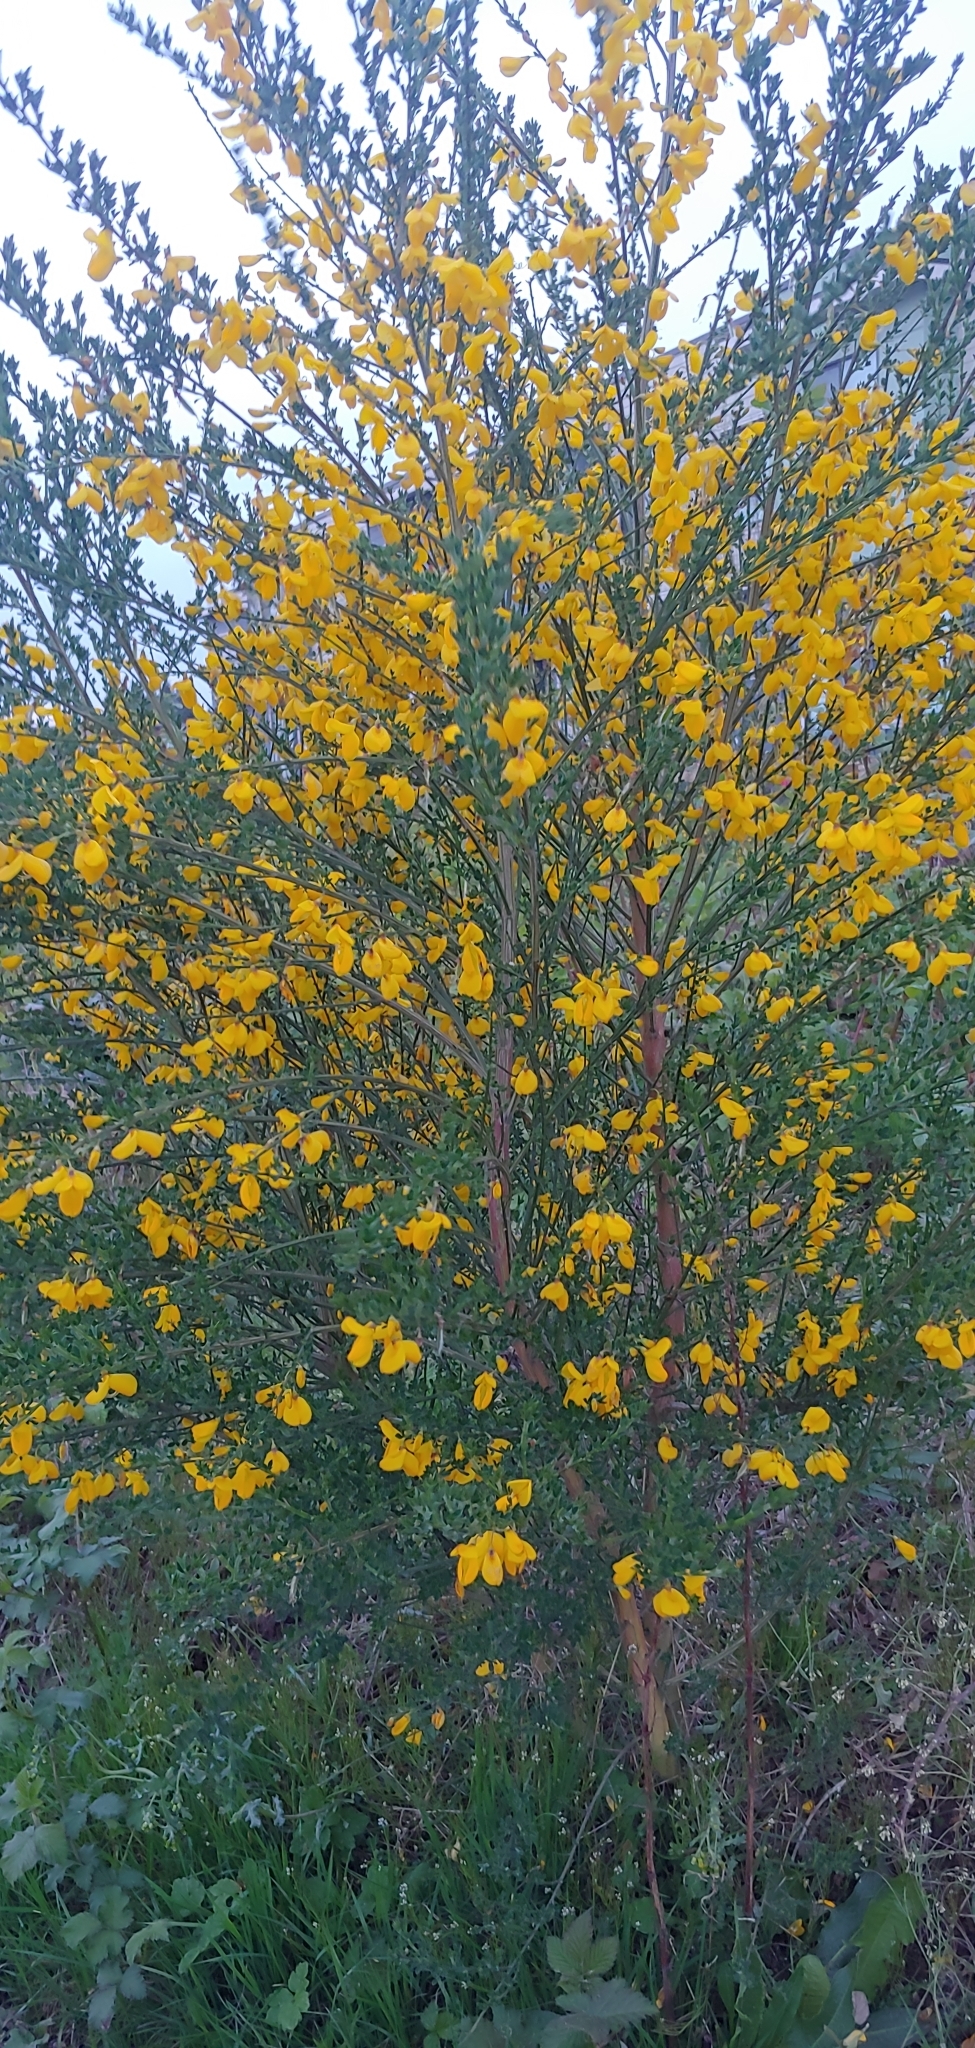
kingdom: Plantae
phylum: Tracheophyta
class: Magnoliopsida
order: Fabales
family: Fabaceae
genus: Cytisus
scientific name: Cytisus scoparius
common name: Scotch broom
